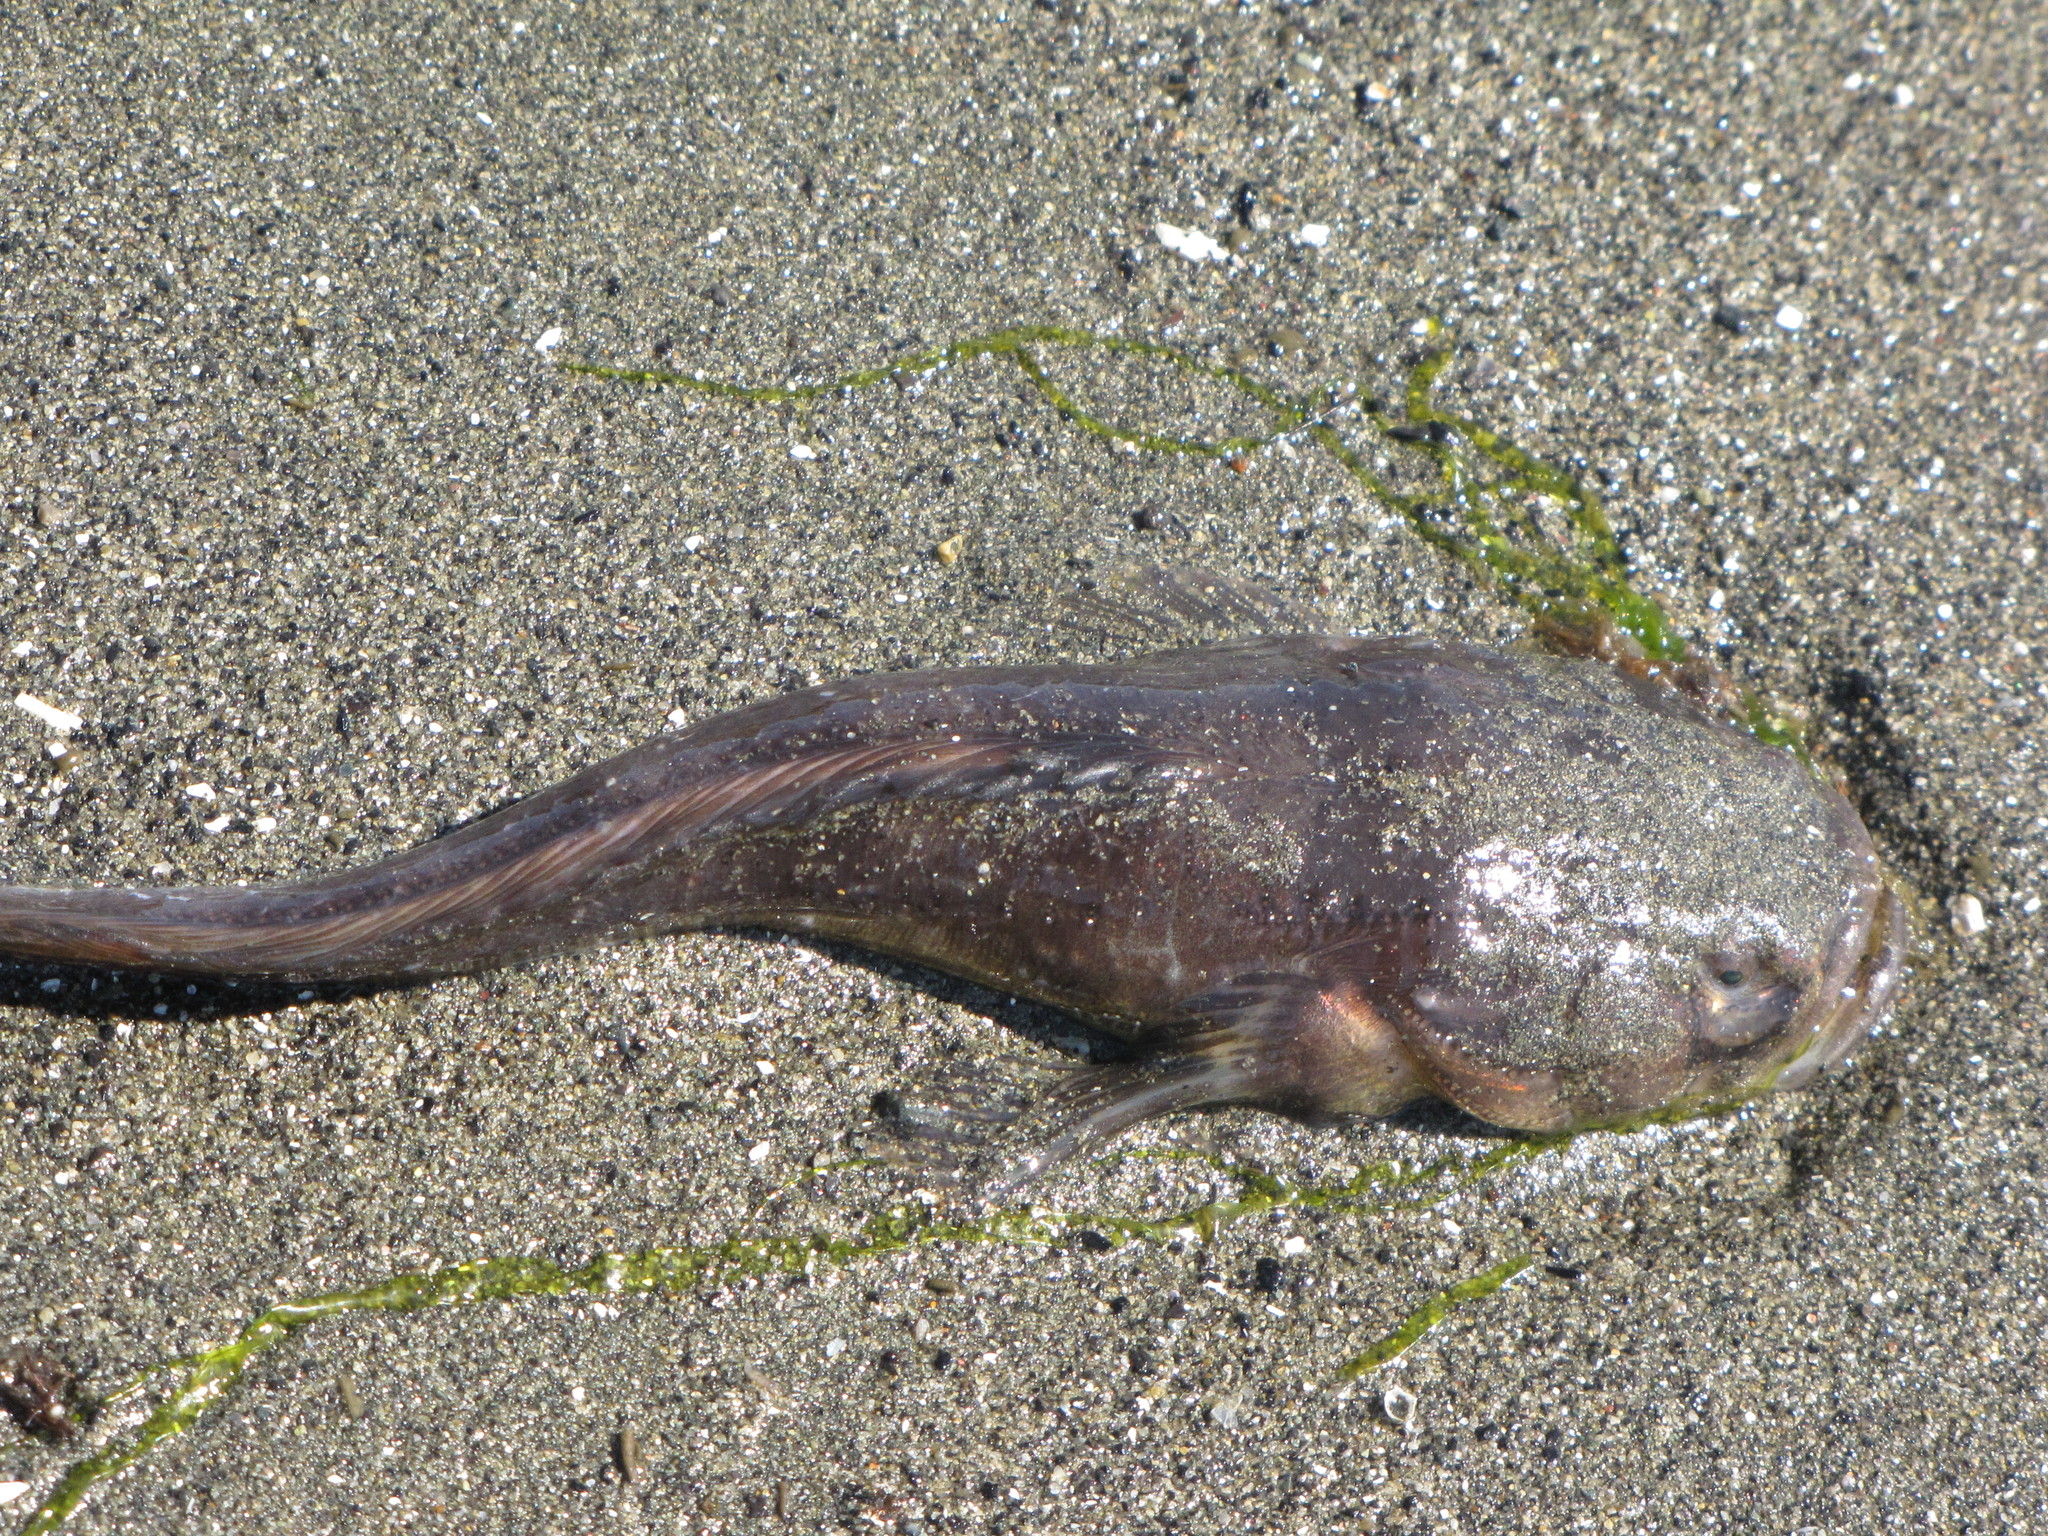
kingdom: Animalia
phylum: Chordata
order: Batrachoidiformes
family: Batrachoididae
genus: Porichthys
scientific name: Porichthys notatus
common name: Plainfin midshipman
